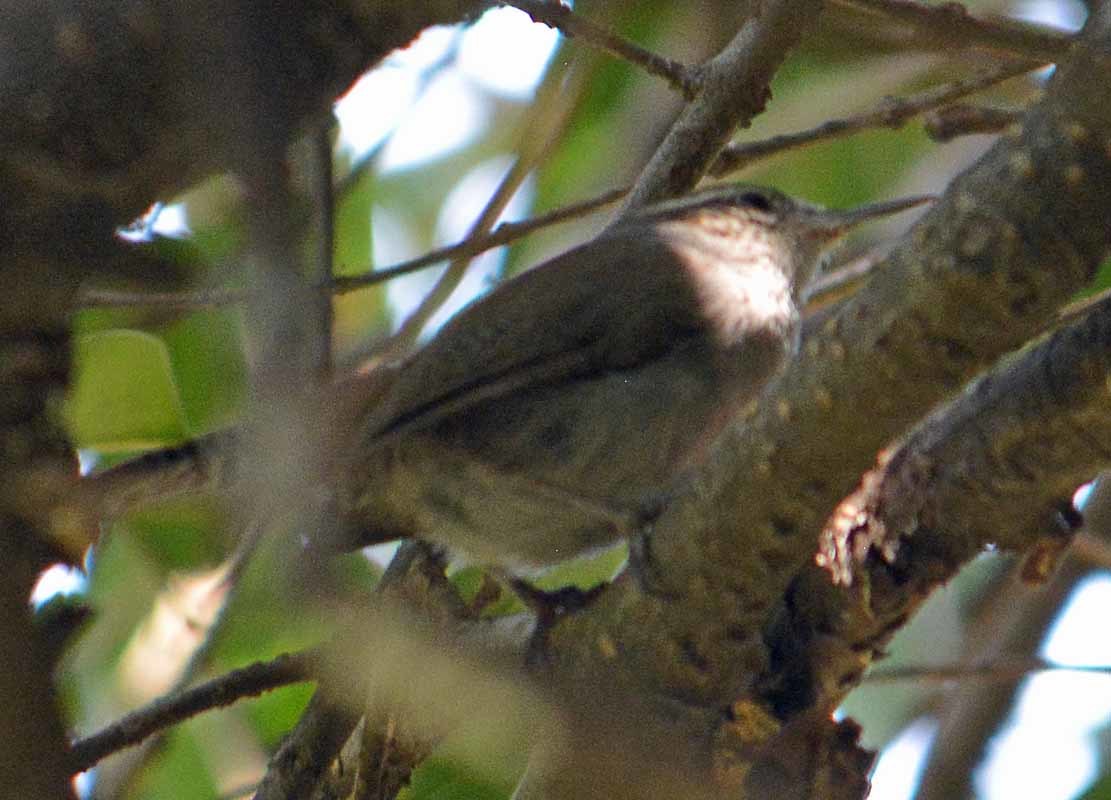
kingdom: Animalia
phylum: Chordata
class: Aves
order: Passeriformes
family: Troglodytidae
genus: Thryomanes
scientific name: Thryomanes bewickii
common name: Bewick's wren
